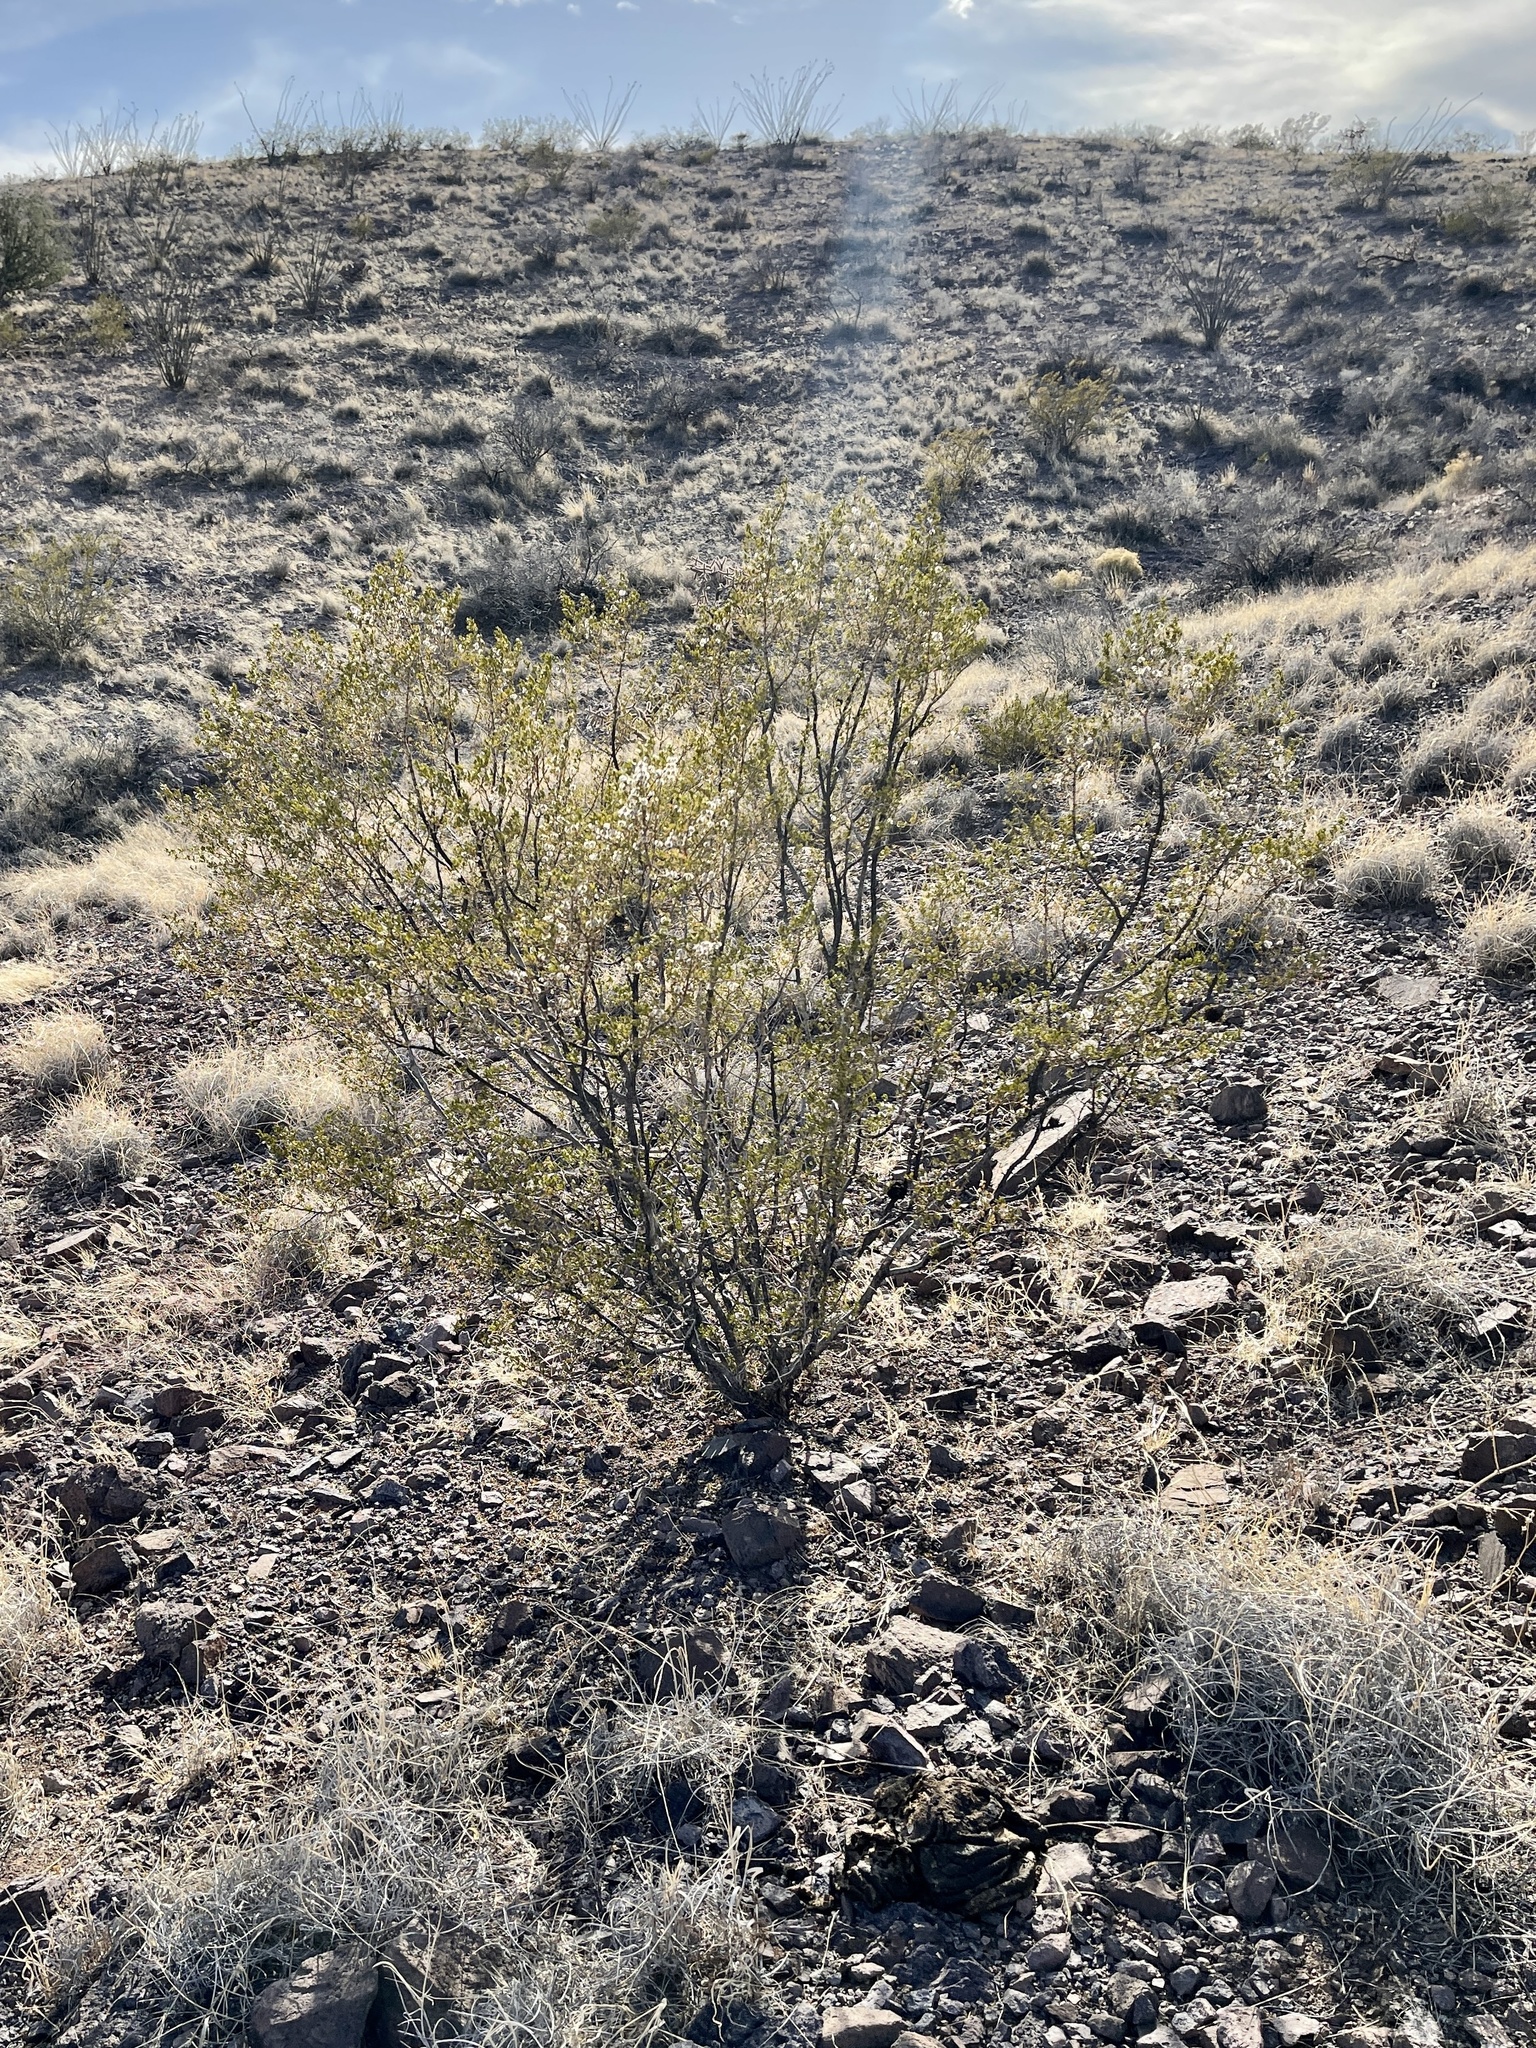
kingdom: Plantae
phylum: Tracheophyta
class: Magnoliopsida
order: Zygophyllales
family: Zygophyllaceae
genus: Larrea
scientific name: Larrea tridentata
